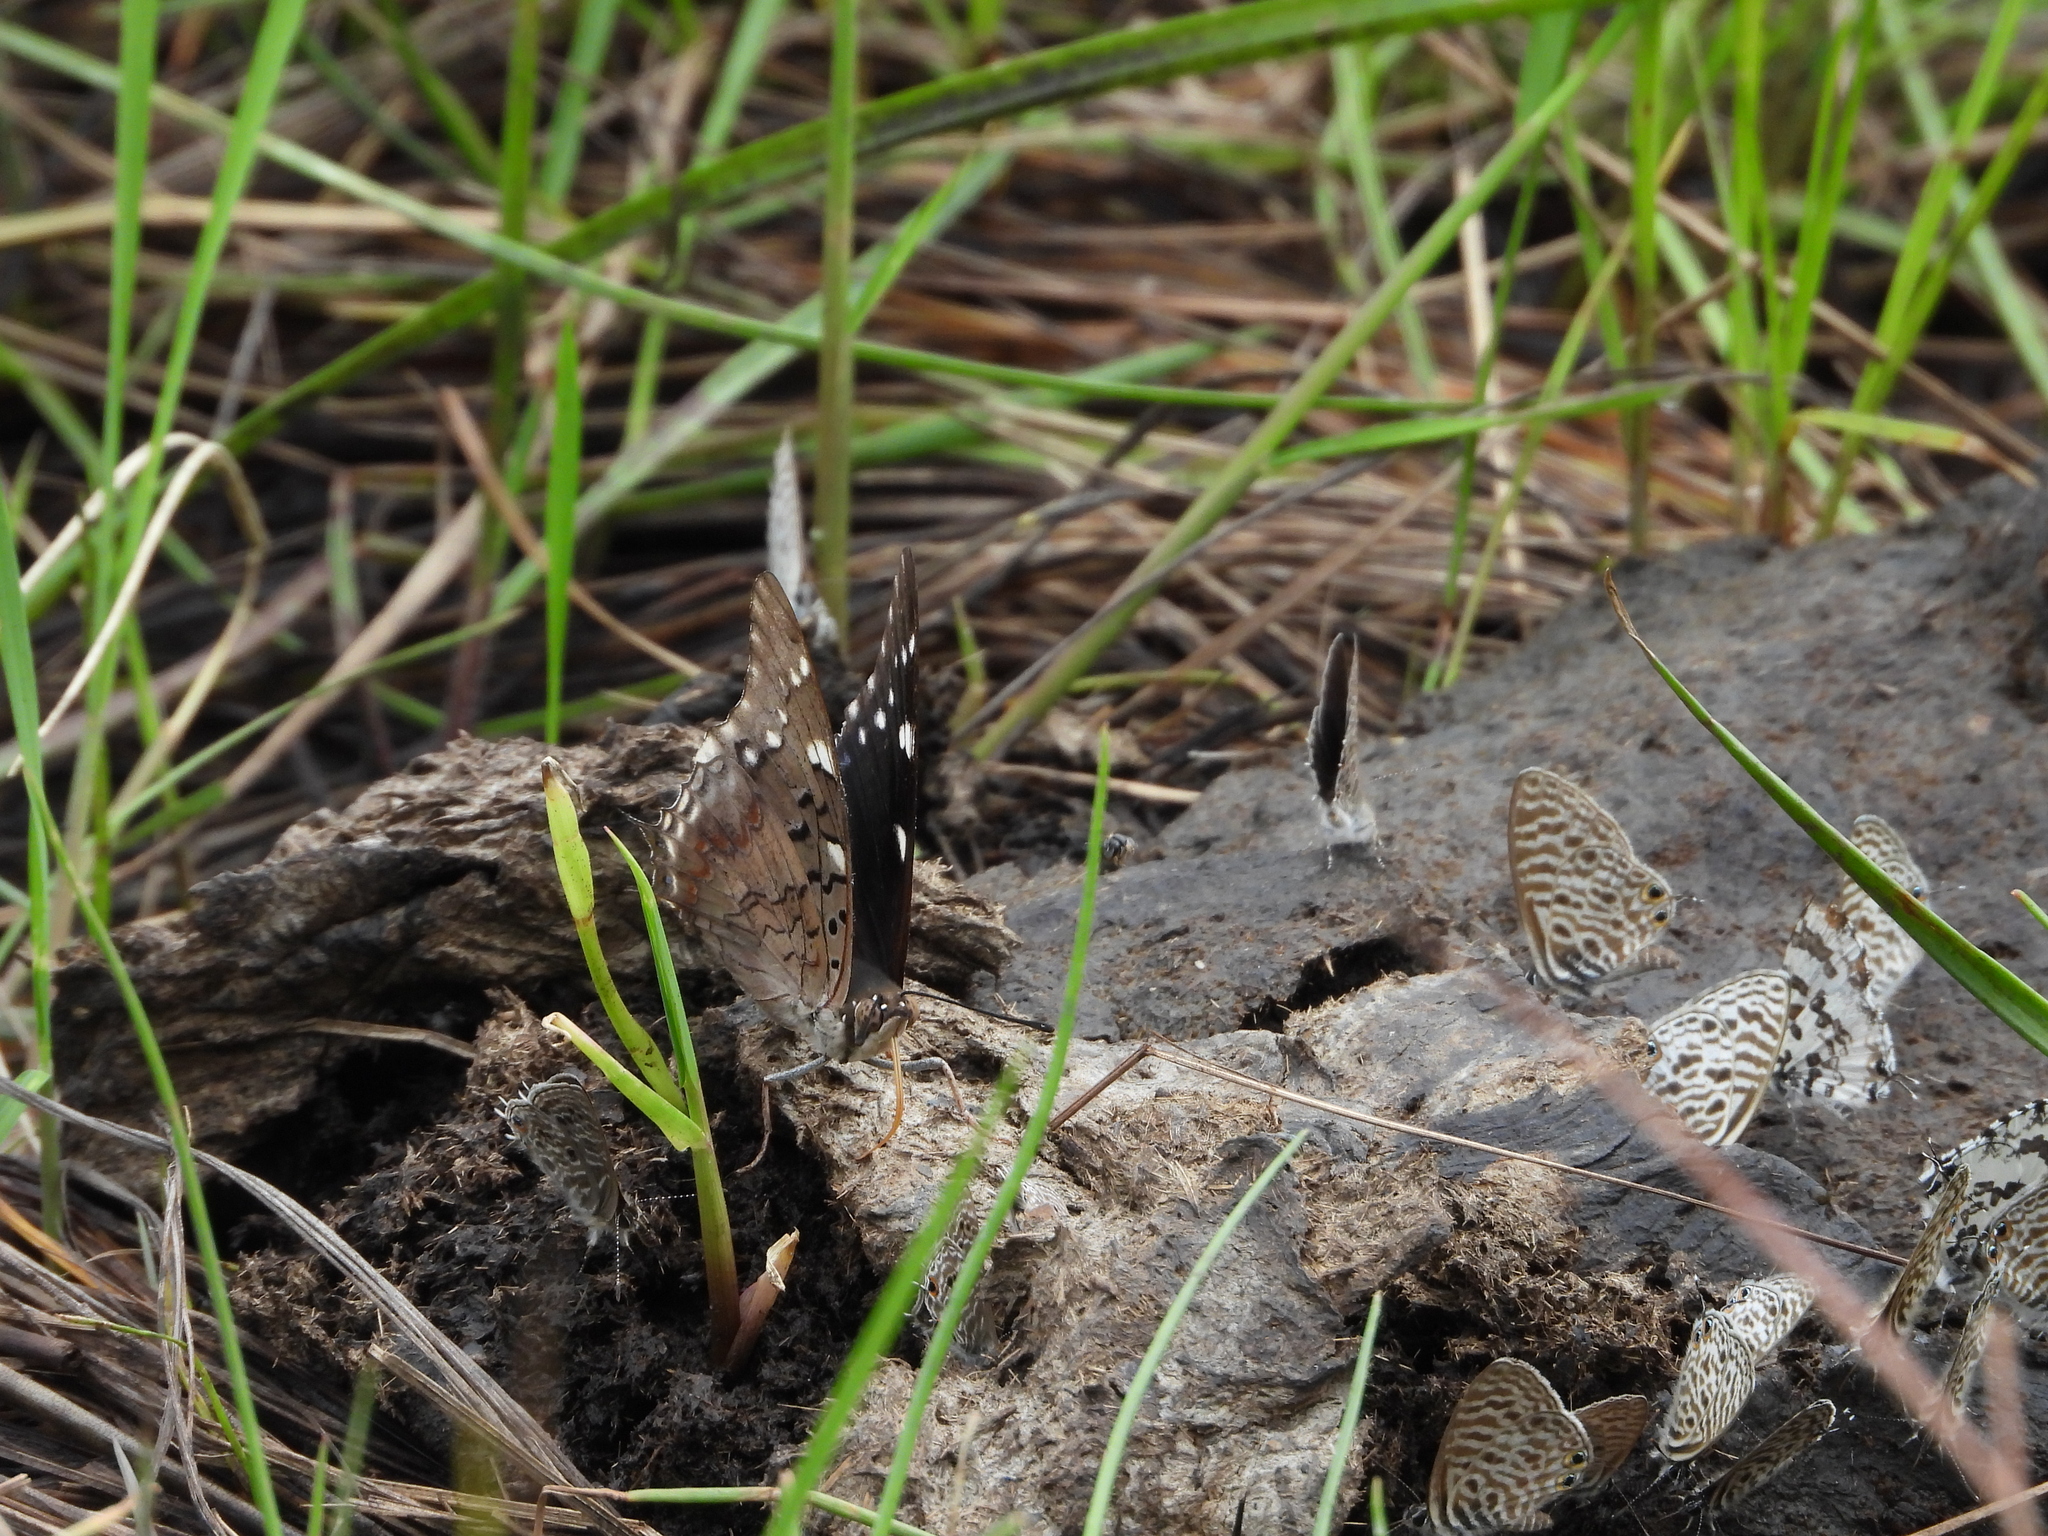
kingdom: Animalia
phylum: Arthropoda
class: Insecta
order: Lepidoptera
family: Nymphalidae
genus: Charaxes
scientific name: Charaxes guderiana
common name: Blue-spangled charaxes
